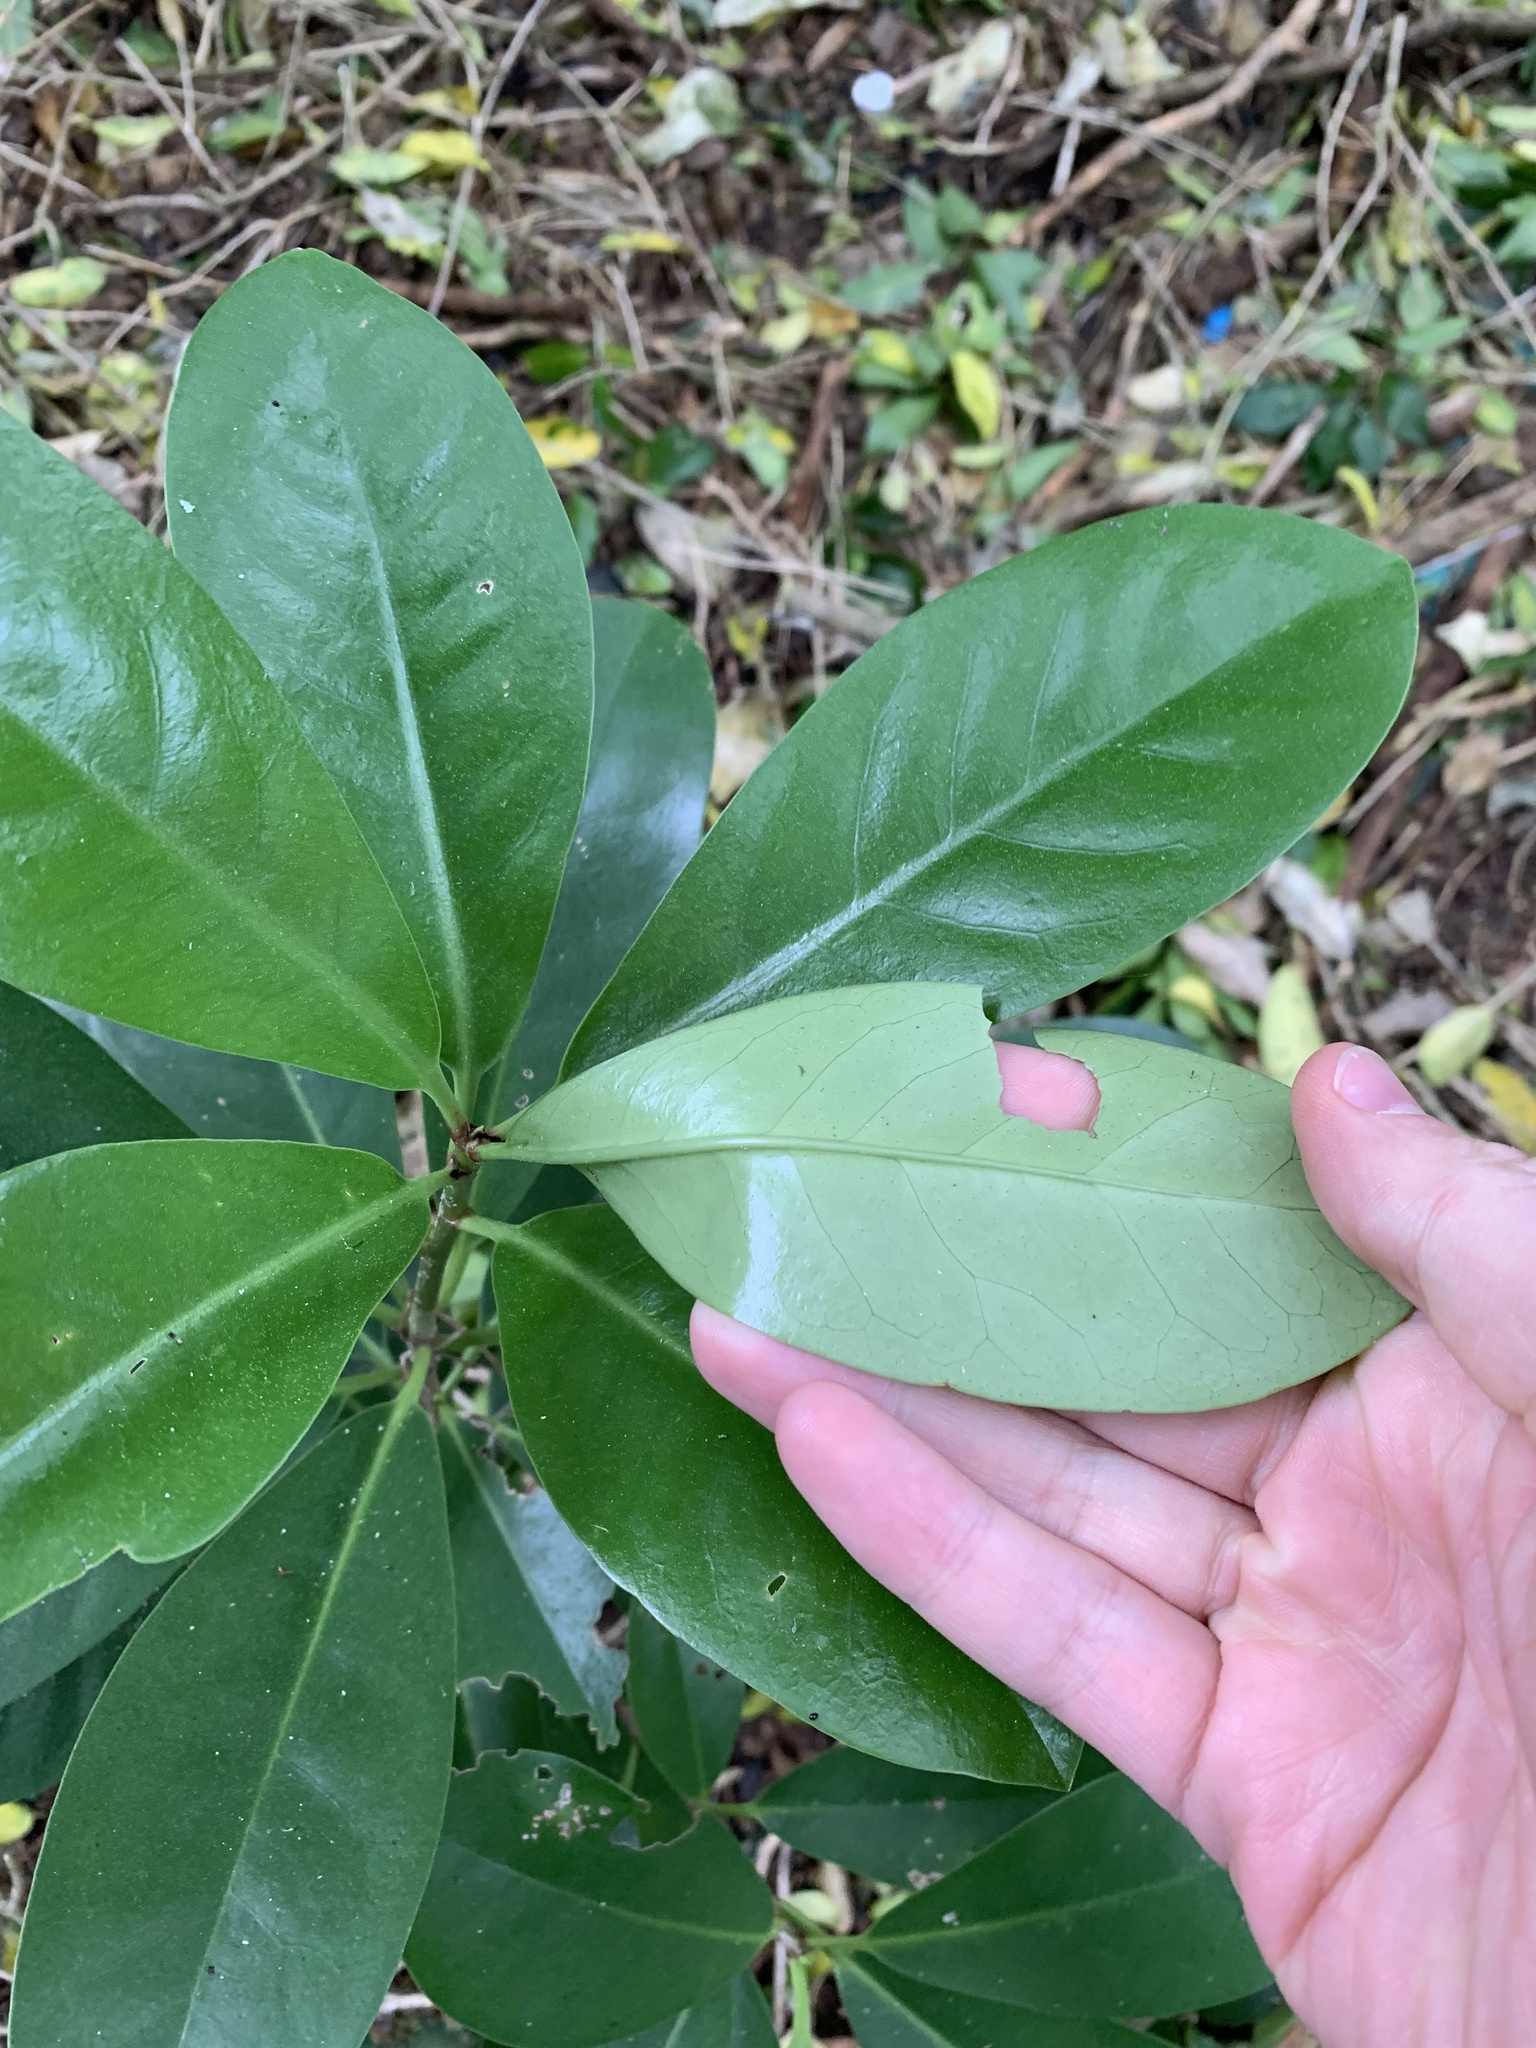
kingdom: Plantae
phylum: Tracheophyta
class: Magnoliopsida
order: Cucurbitales
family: Corynocarpaceae
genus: Corynocarpus
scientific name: Corynocarpus laevigatus
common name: New zealand laurel
